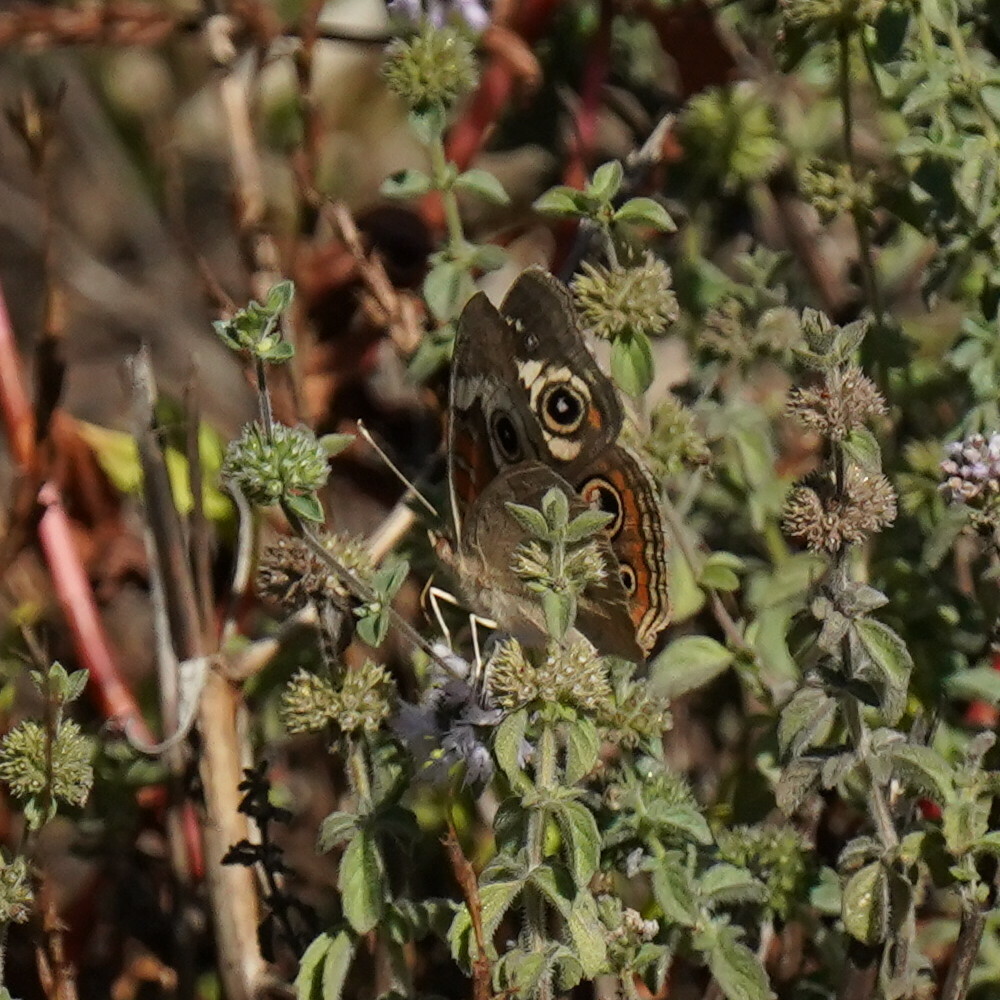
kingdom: Animalia
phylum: Arthropoda
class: Insecta
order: Lepidoptera
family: Nymphalidae
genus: Junonia
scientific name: Junonia grisea
